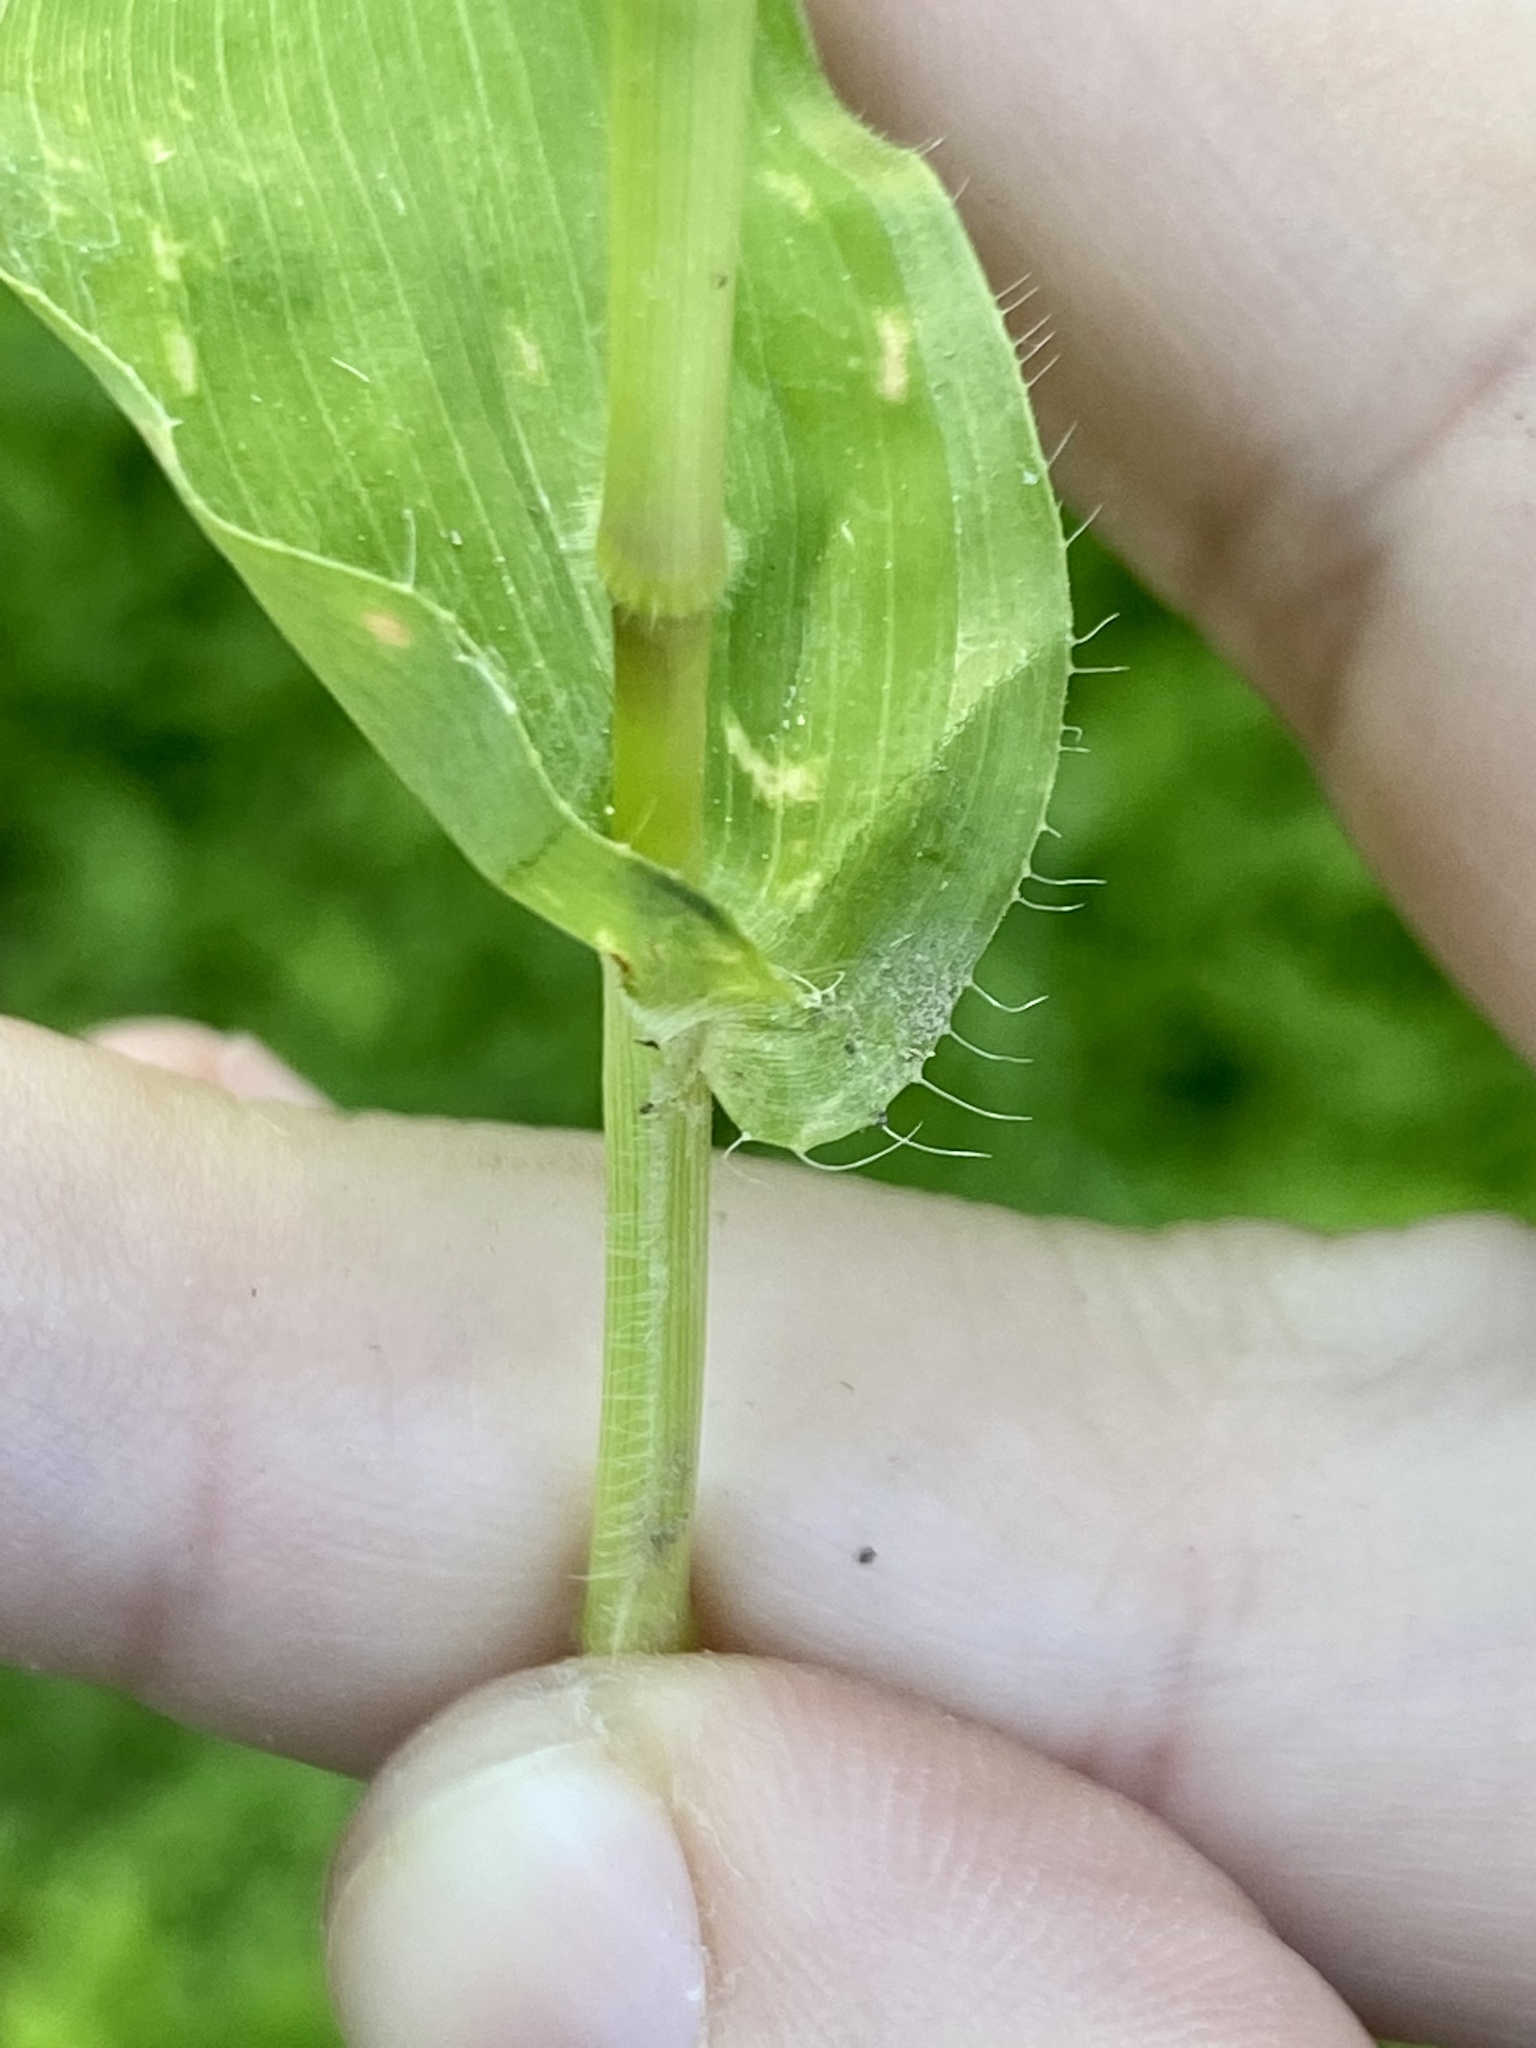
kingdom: Plantae
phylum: Tracheophyta
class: Liliopsida
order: Poales
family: Poaceae
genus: Arthraxon
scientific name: Arthraxon hispidus
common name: Small carpgrass
